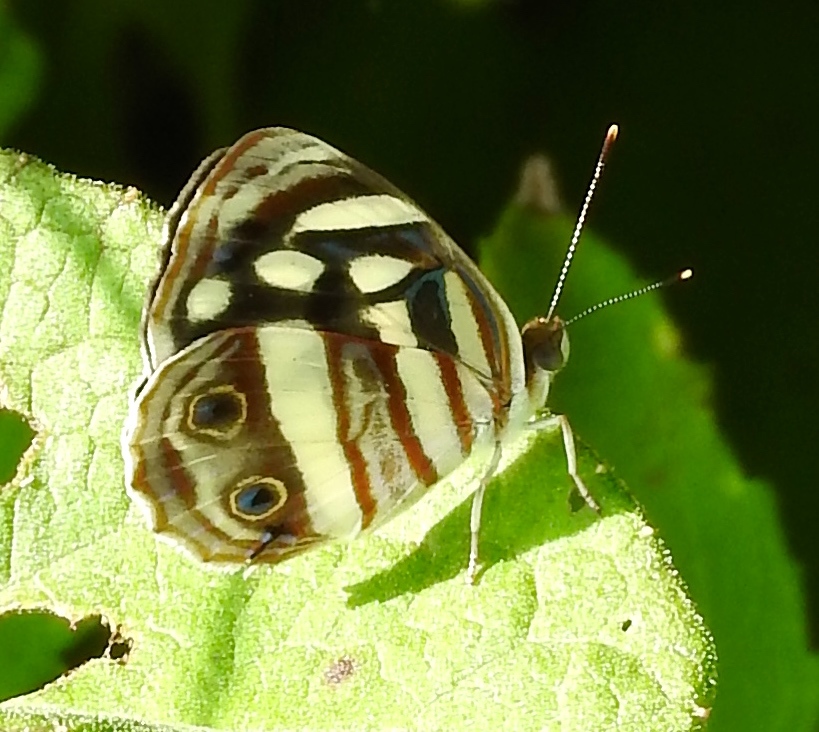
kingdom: Animalia
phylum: Arthropoda
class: Insecta
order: Lepidoptera
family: Nymphalidae
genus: Dynamine
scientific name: Dynamine mylitta
